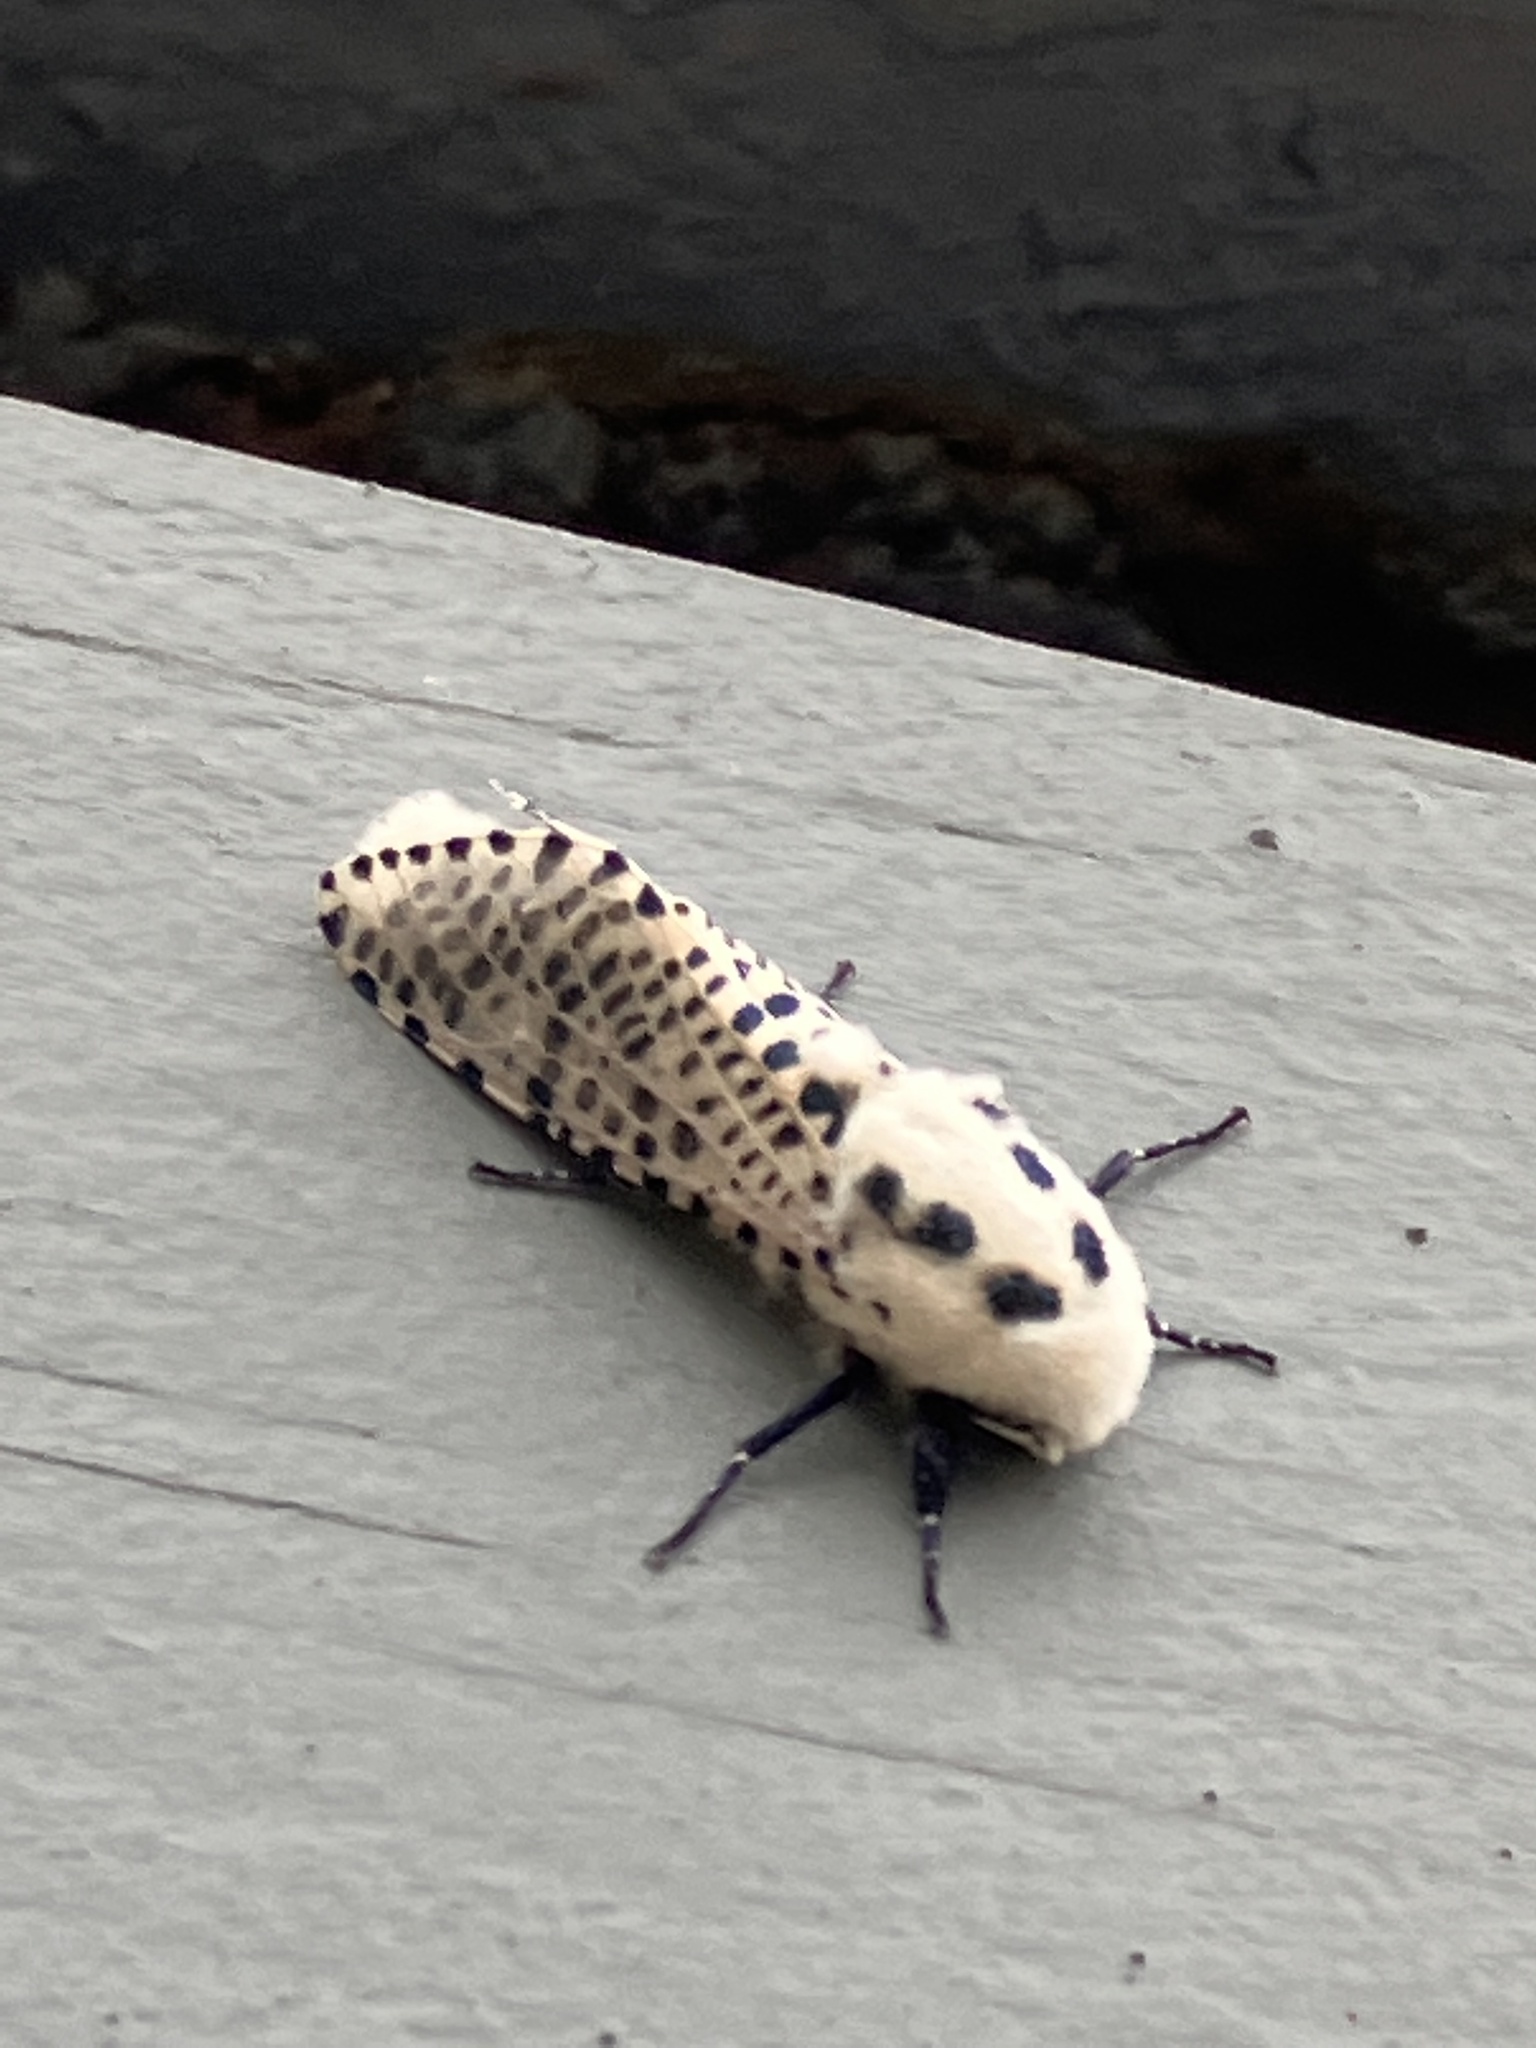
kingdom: Animalia
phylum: Arthropoda
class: Insecta
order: Lepidoptera
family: Cossidae
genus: Zeuzera
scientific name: Zeuzera pyrina
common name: Leopard moth
